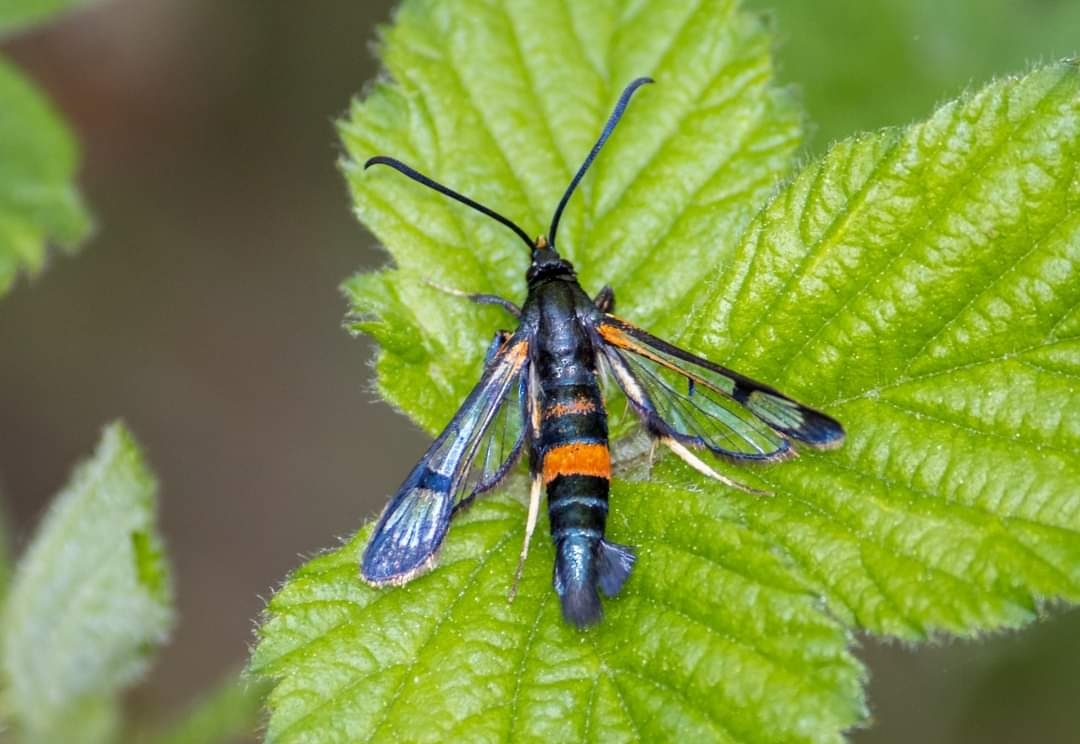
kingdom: Animalia
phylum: Arthropoda
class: Insecta
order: Lepidoptera
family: Sesiidae
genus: Synanthedon
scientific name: Synanthedon culiciformis
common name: Large red-belted clearwing
